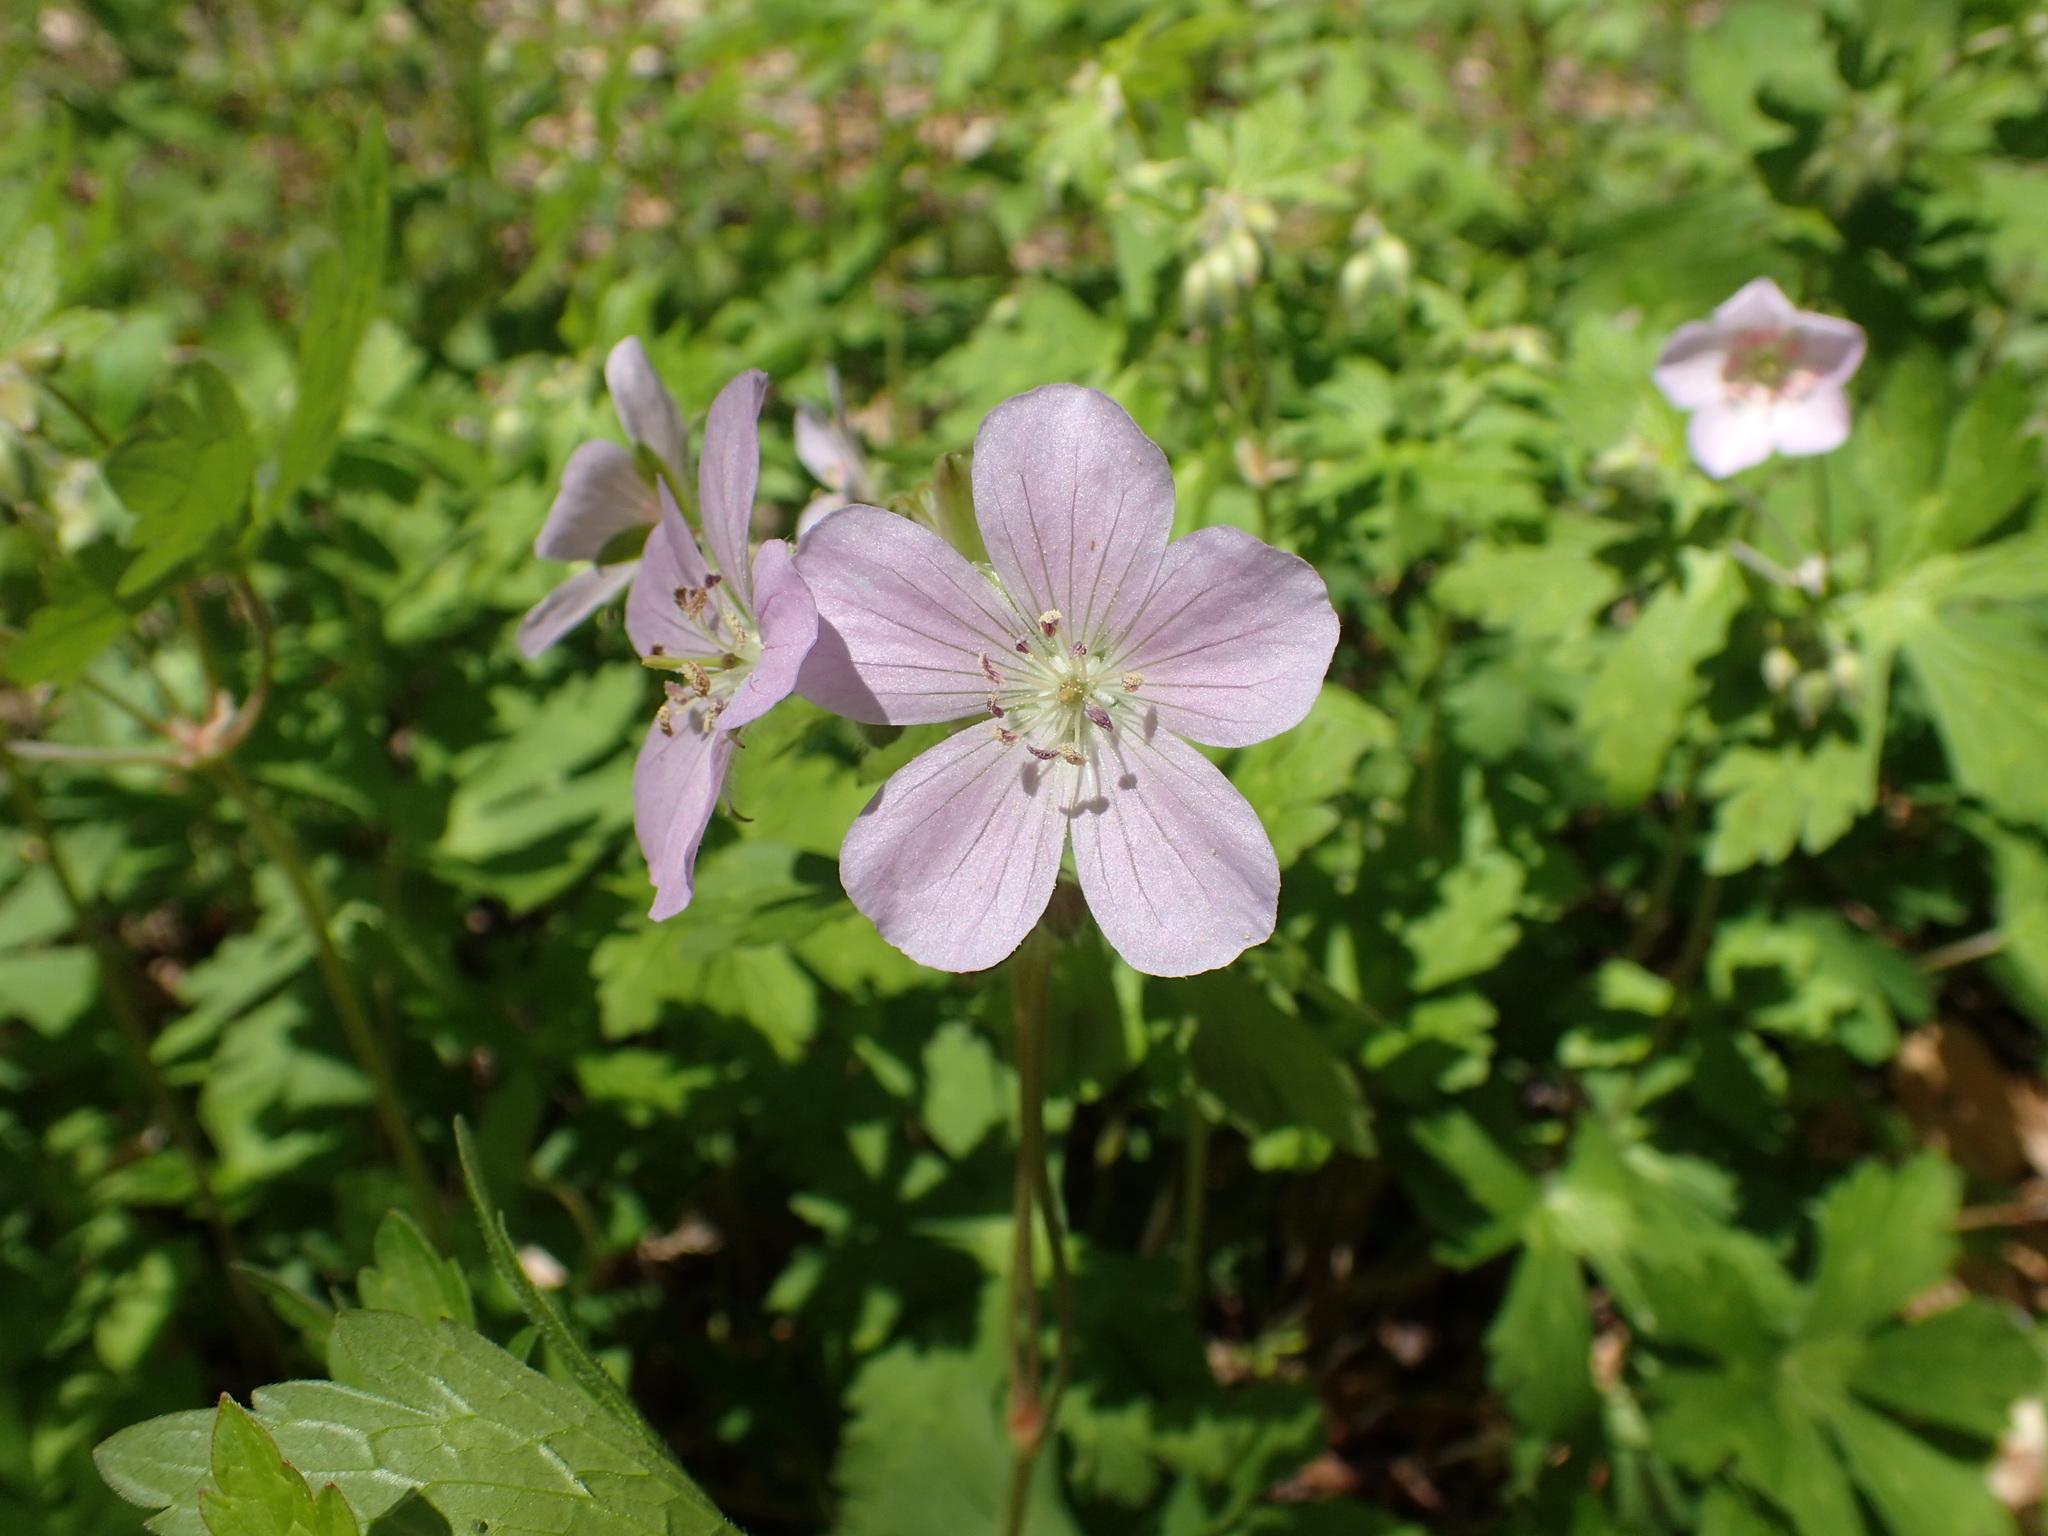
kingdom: Plantae
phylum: Tracheophyta
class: Magnoliopsida
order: Geraniales
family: Geraniaceae
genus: Geranium
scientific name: Geranium maculatum
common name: Spotted geranium
